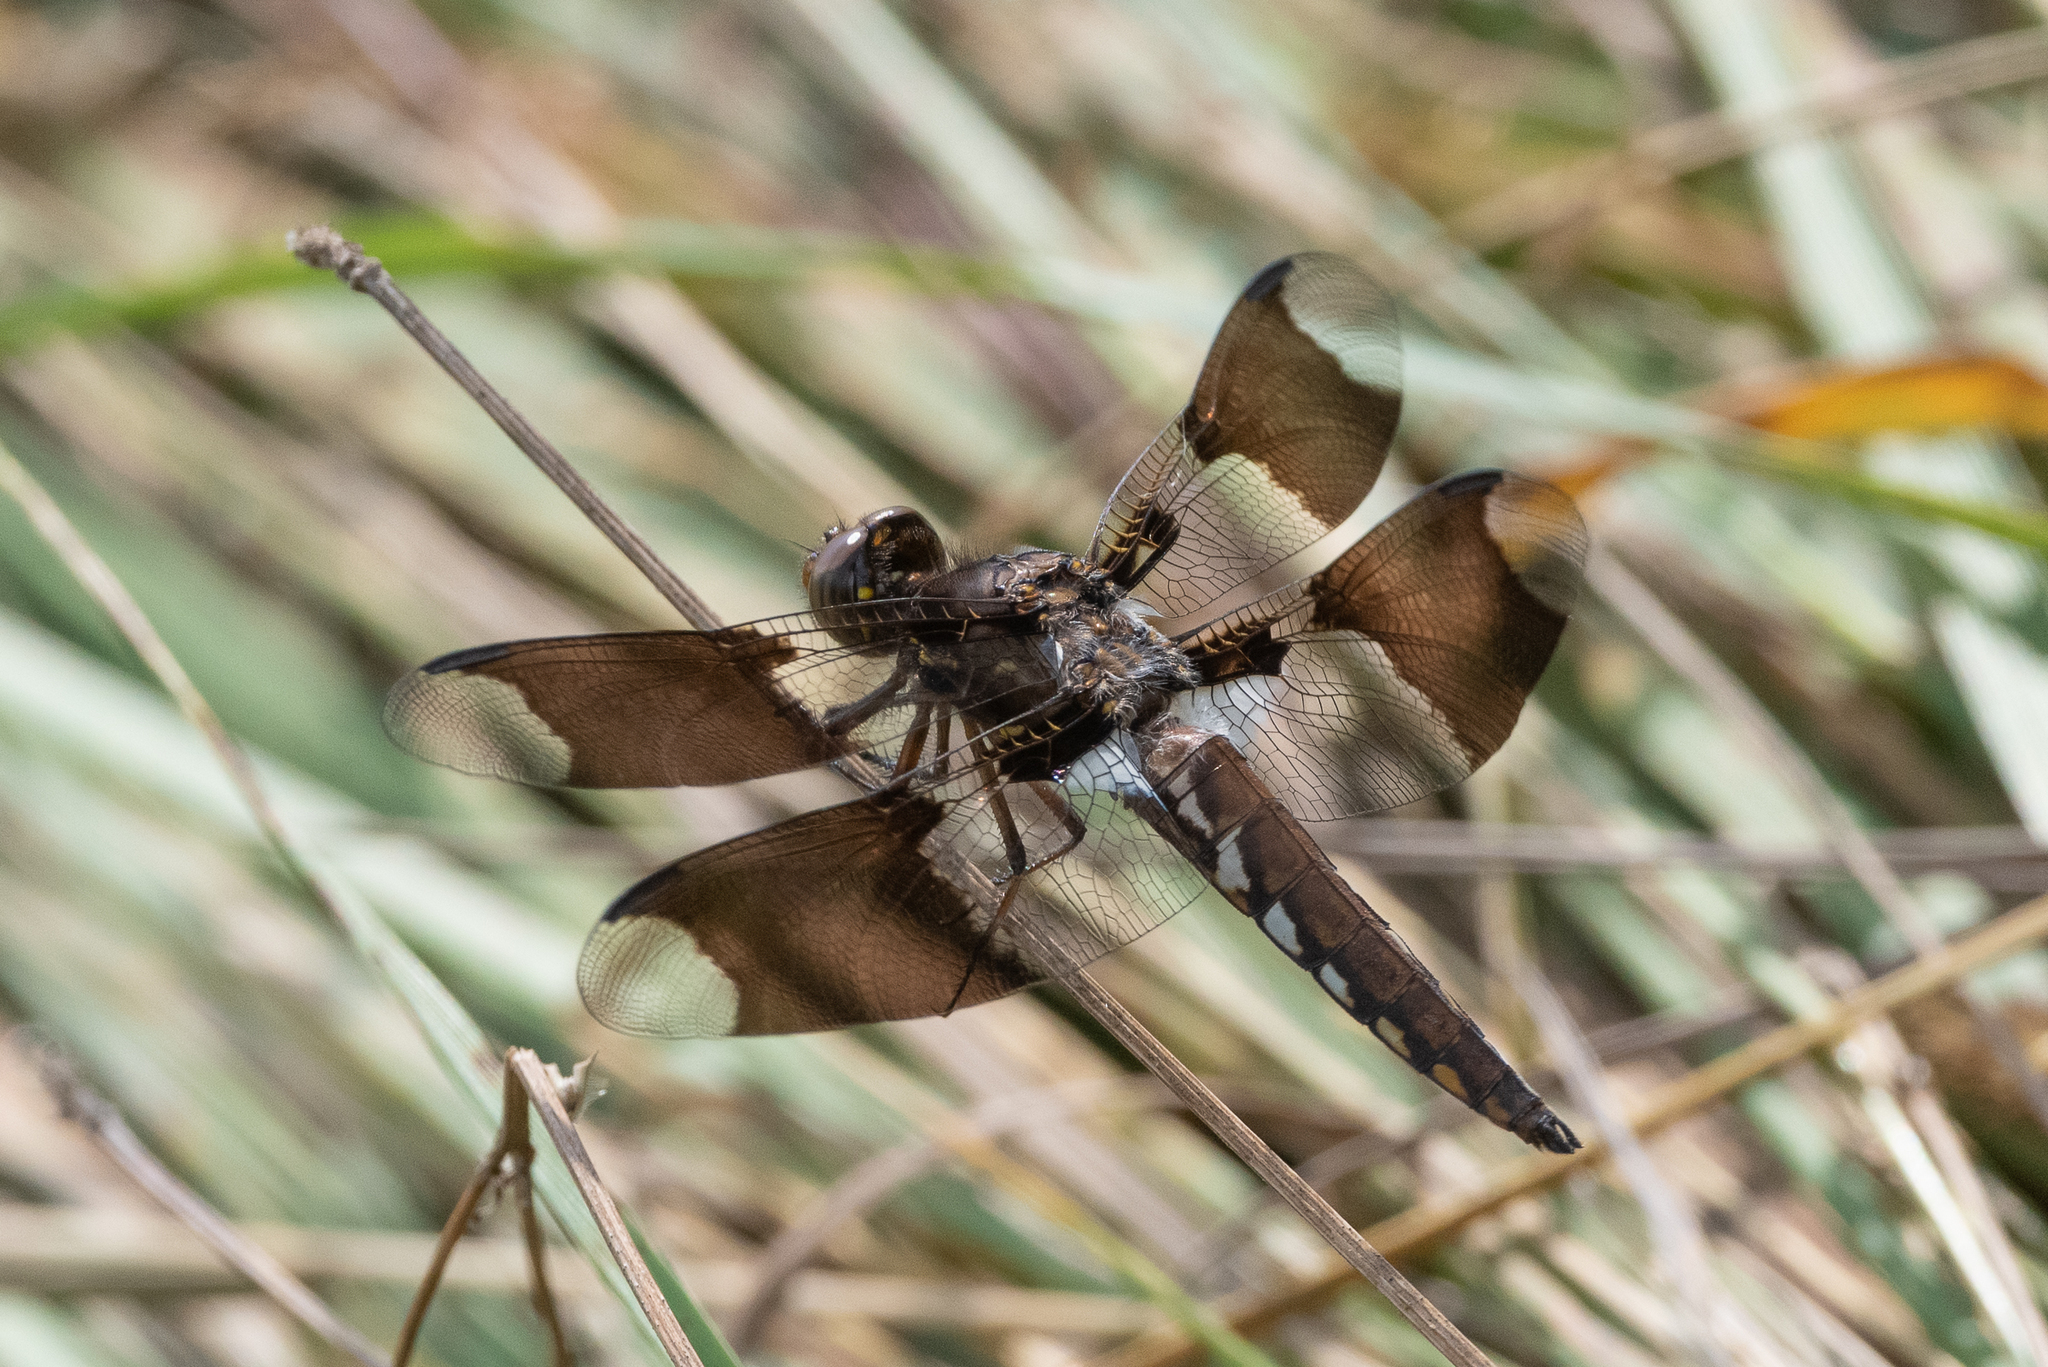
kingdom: Animalia
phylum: Arthropoda
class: Insecta
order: Odonata
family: Libellulidae
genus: Plathemis
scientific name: Plathemis lydia
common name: Common whitetail
